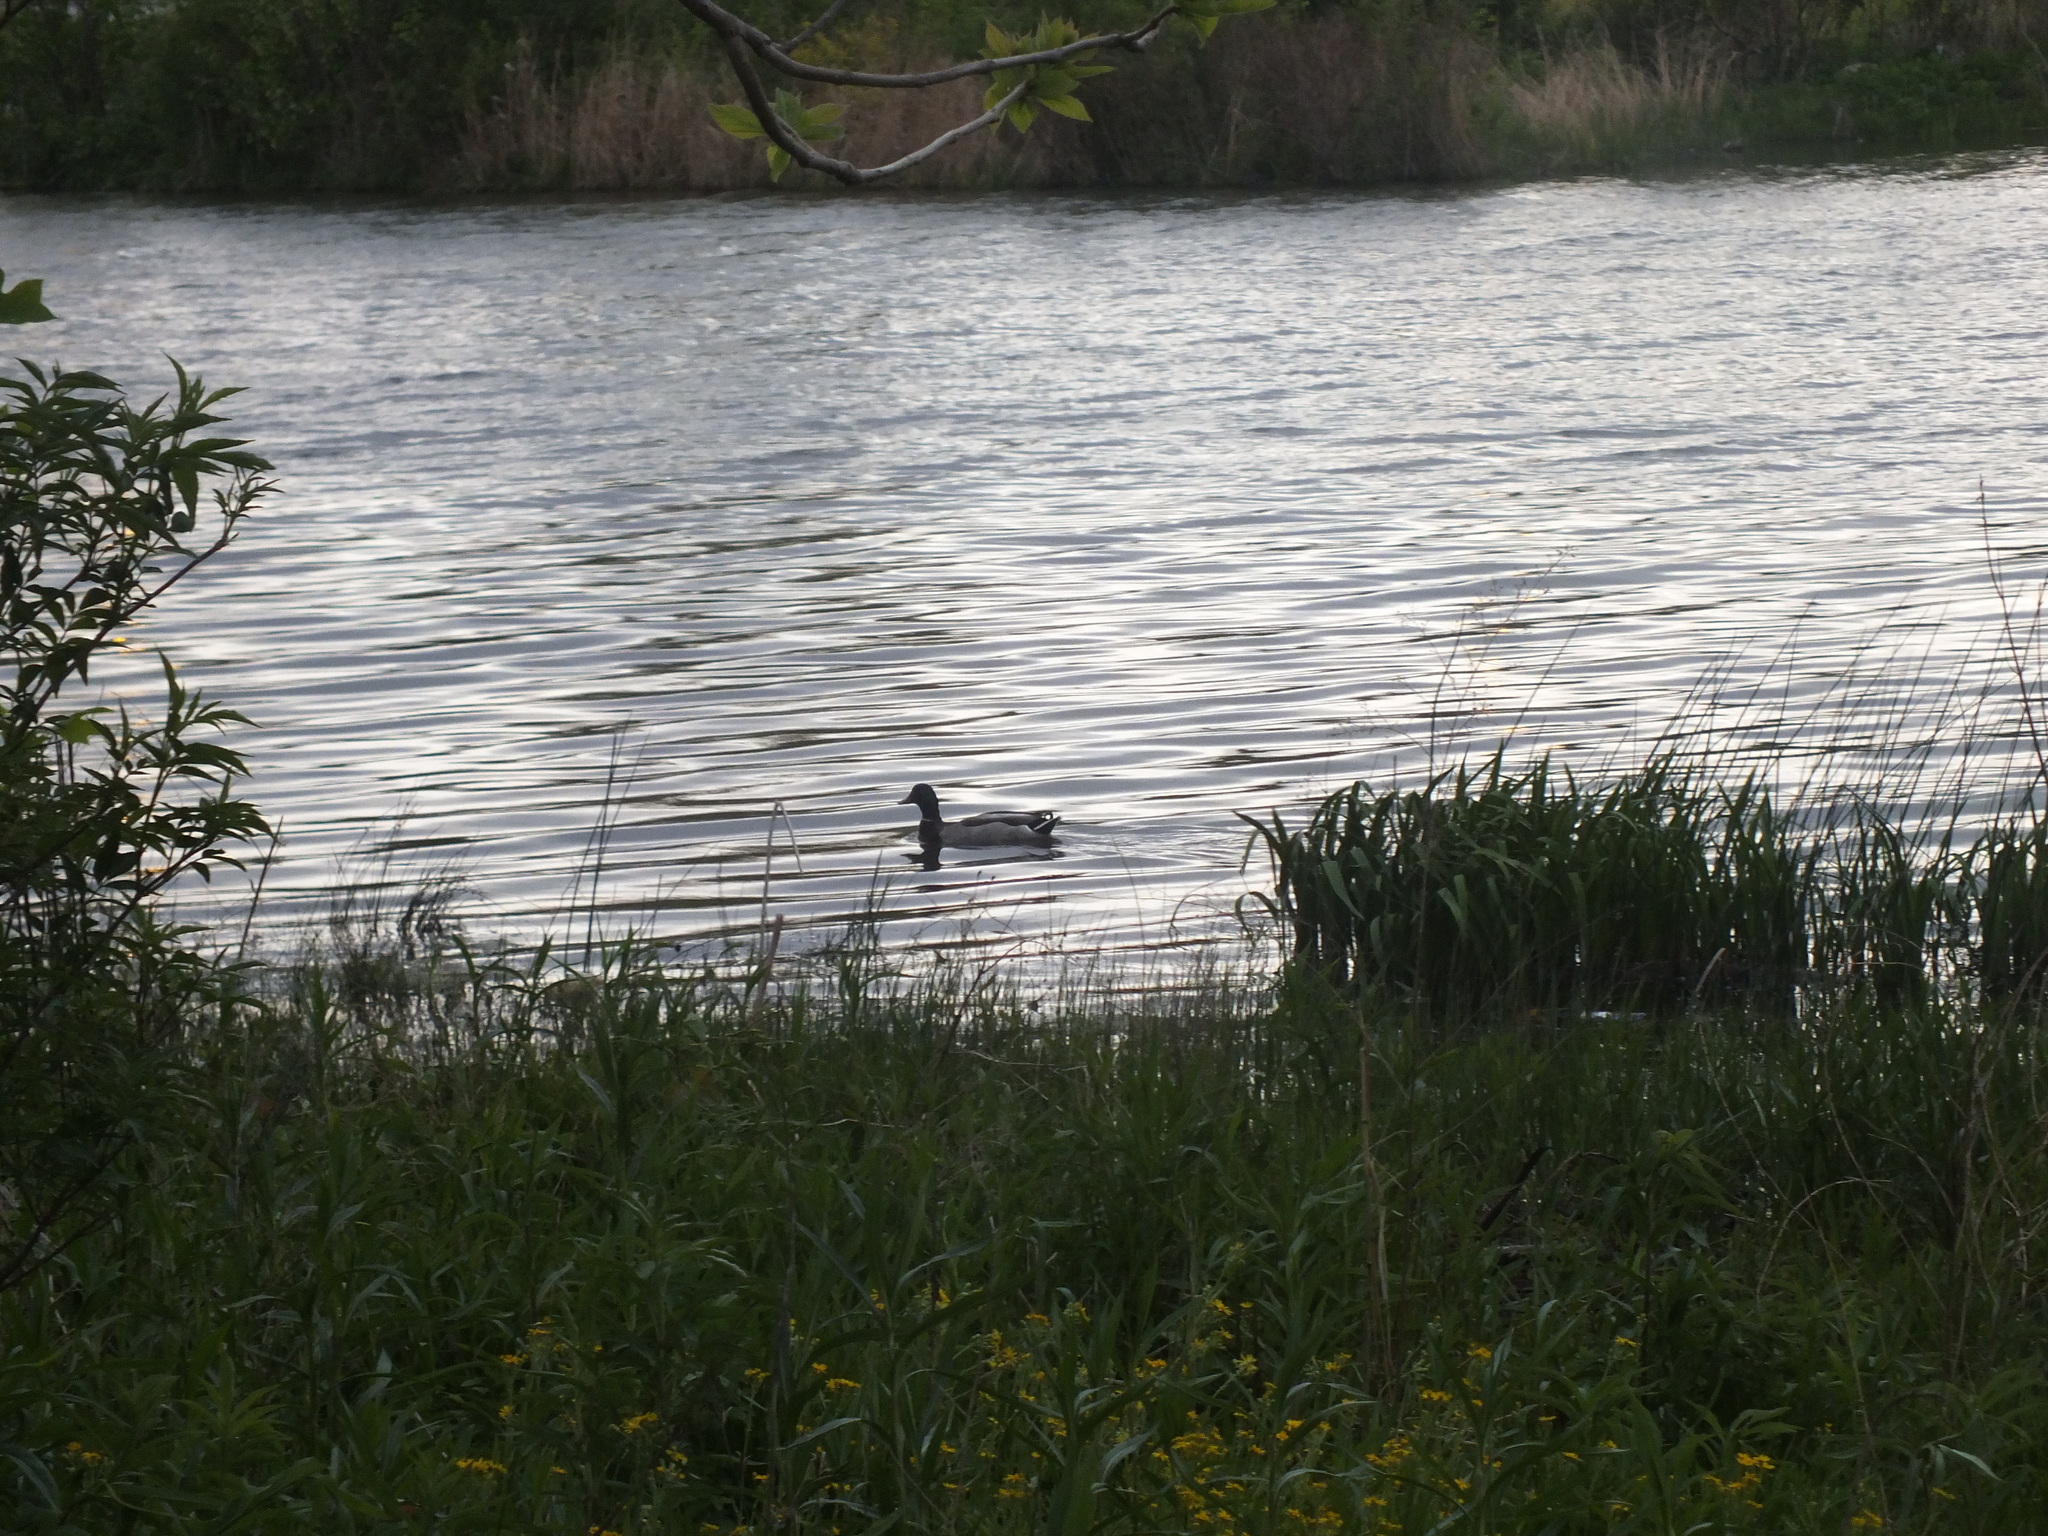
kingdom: Animalia
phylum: Chordata
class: Aves
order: Anseriformes
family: Anatidae
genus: Anas
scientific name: Anas platyrhynchos
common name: Mallard
